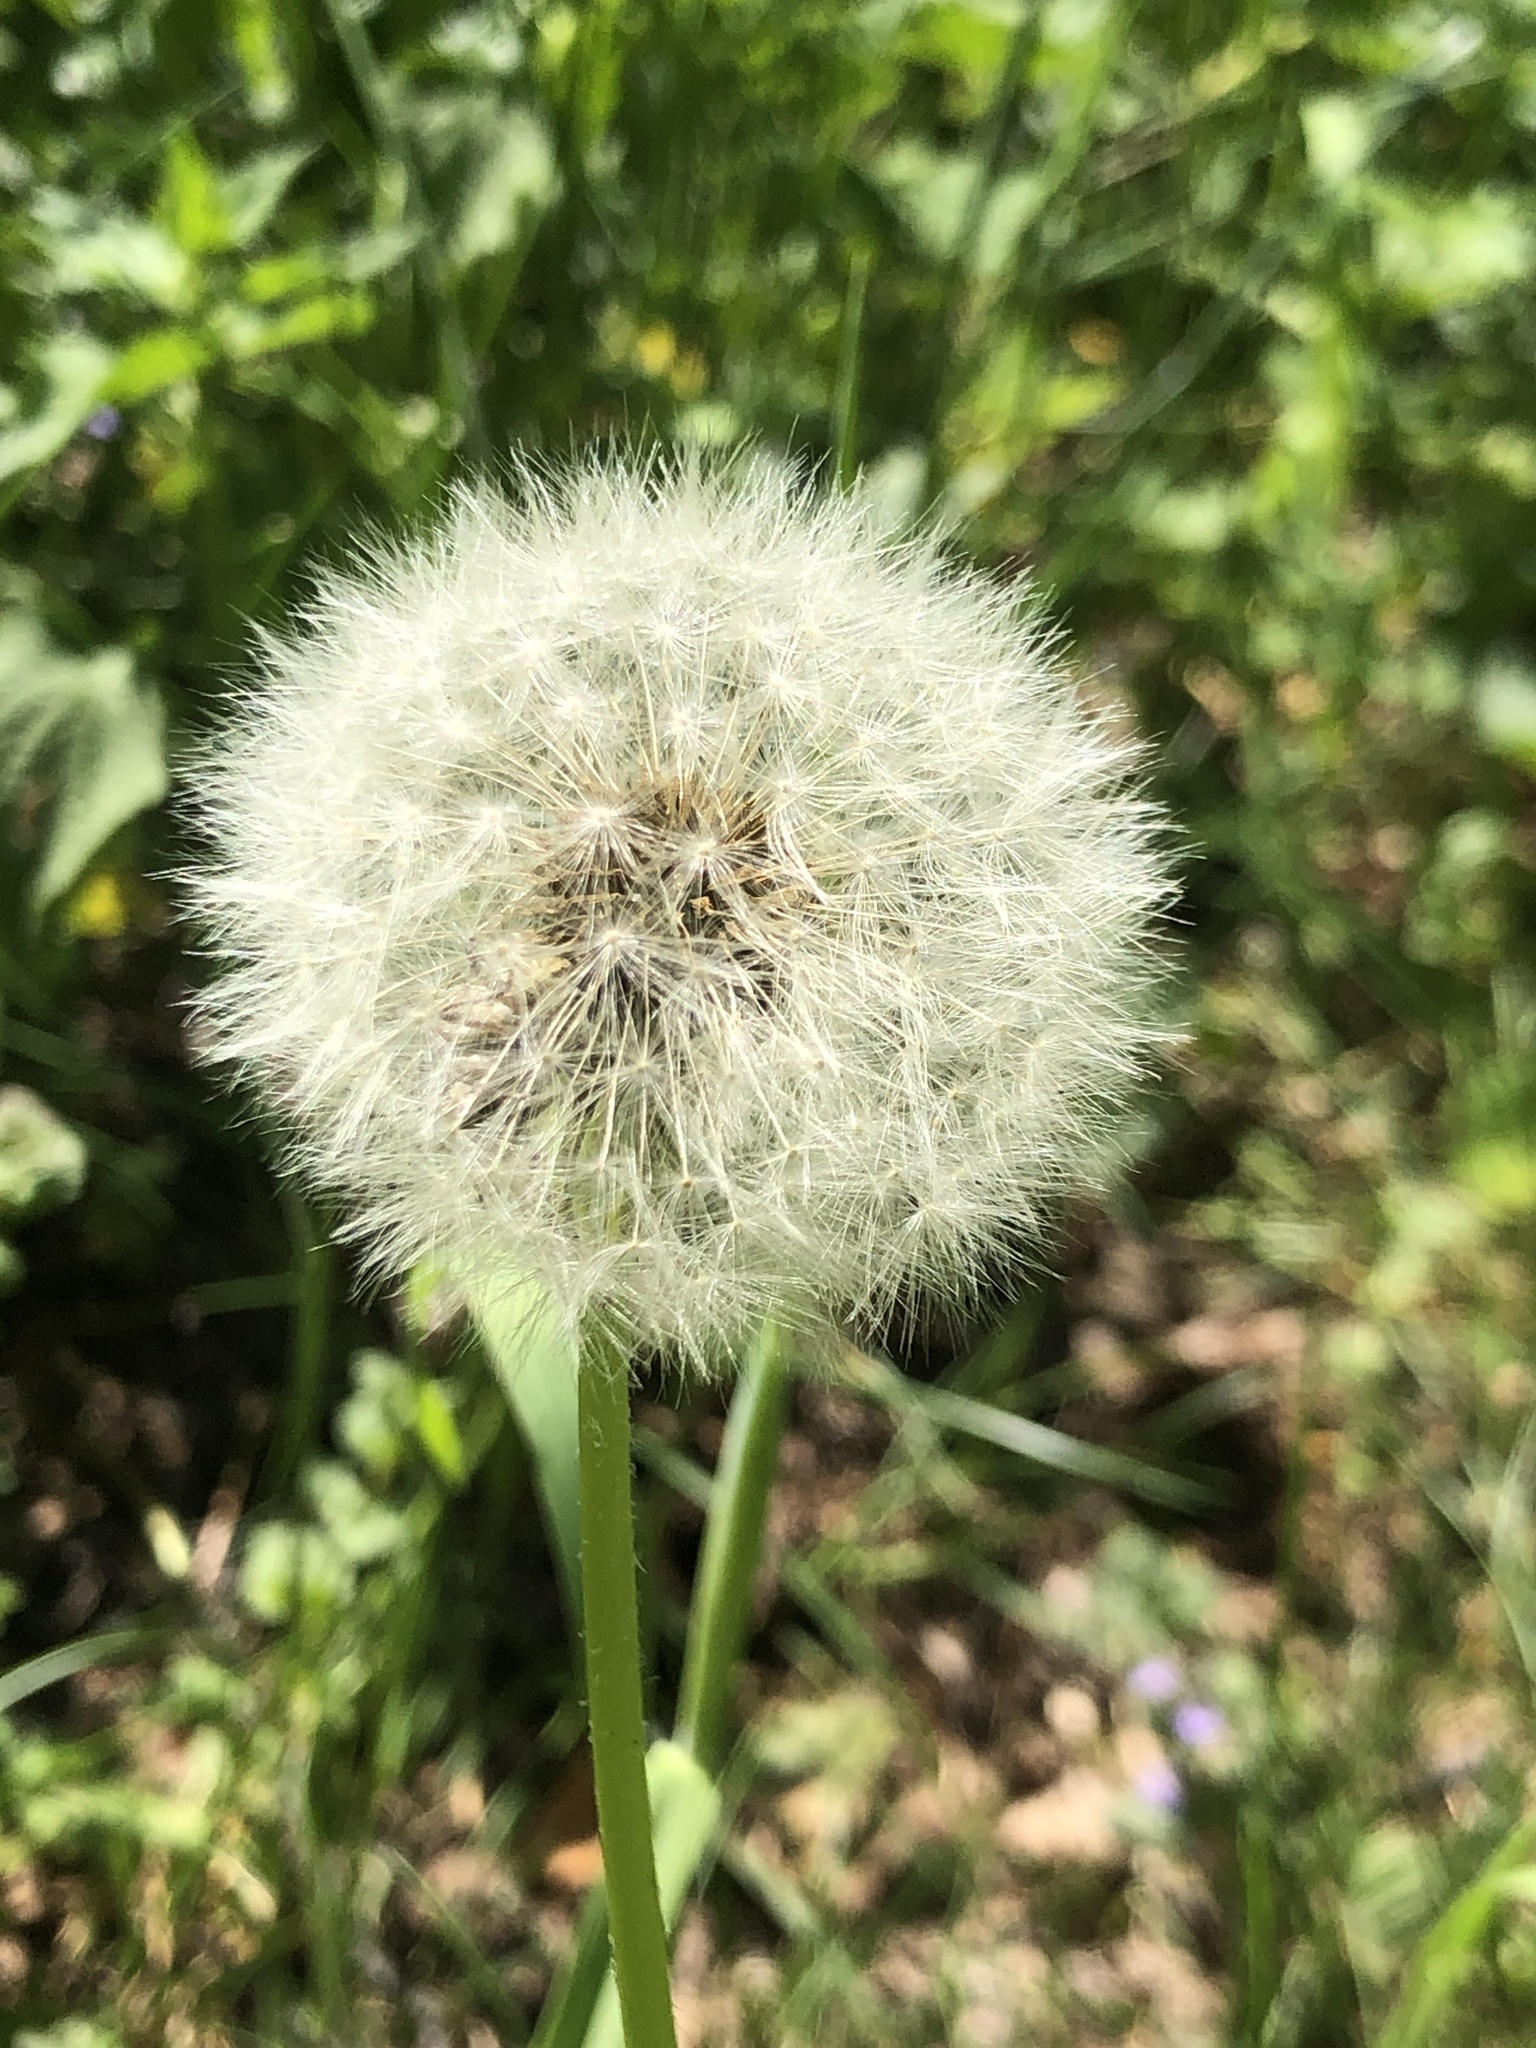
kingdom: Plantae
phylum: Tracheophyta
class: Magnoliopsida
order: Asterales
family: Asteraceae
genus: Taraxacum
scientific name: Taraxacum officinale
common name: Common dandelion
